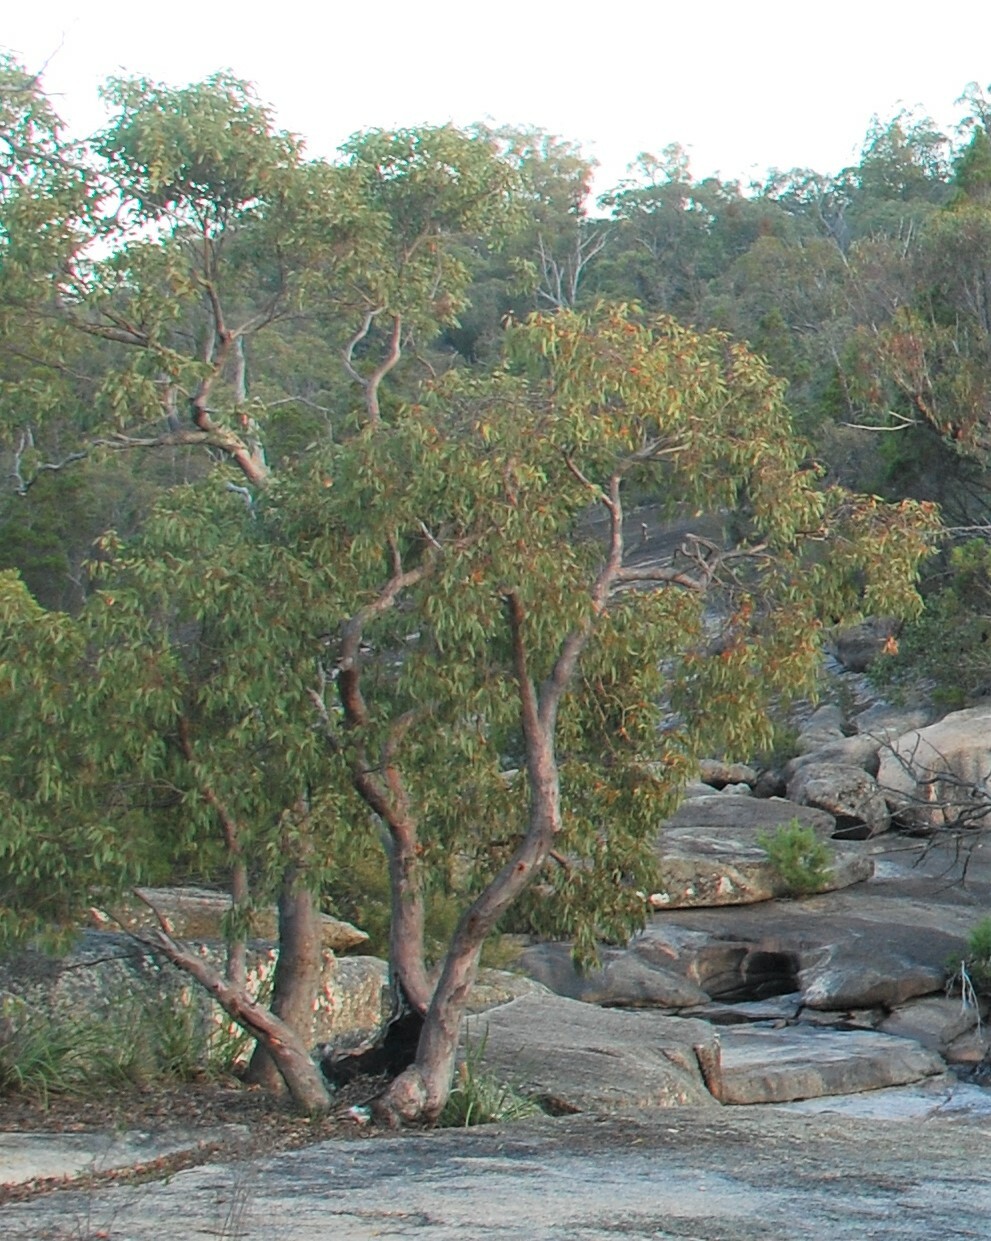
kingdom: Plantae
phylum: Tracheophyta
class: Magnoliopsida
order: Myrtales
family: Myrtaceae
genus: Eucalyptus
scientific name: Eucalyptus prava
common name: Orange gum
